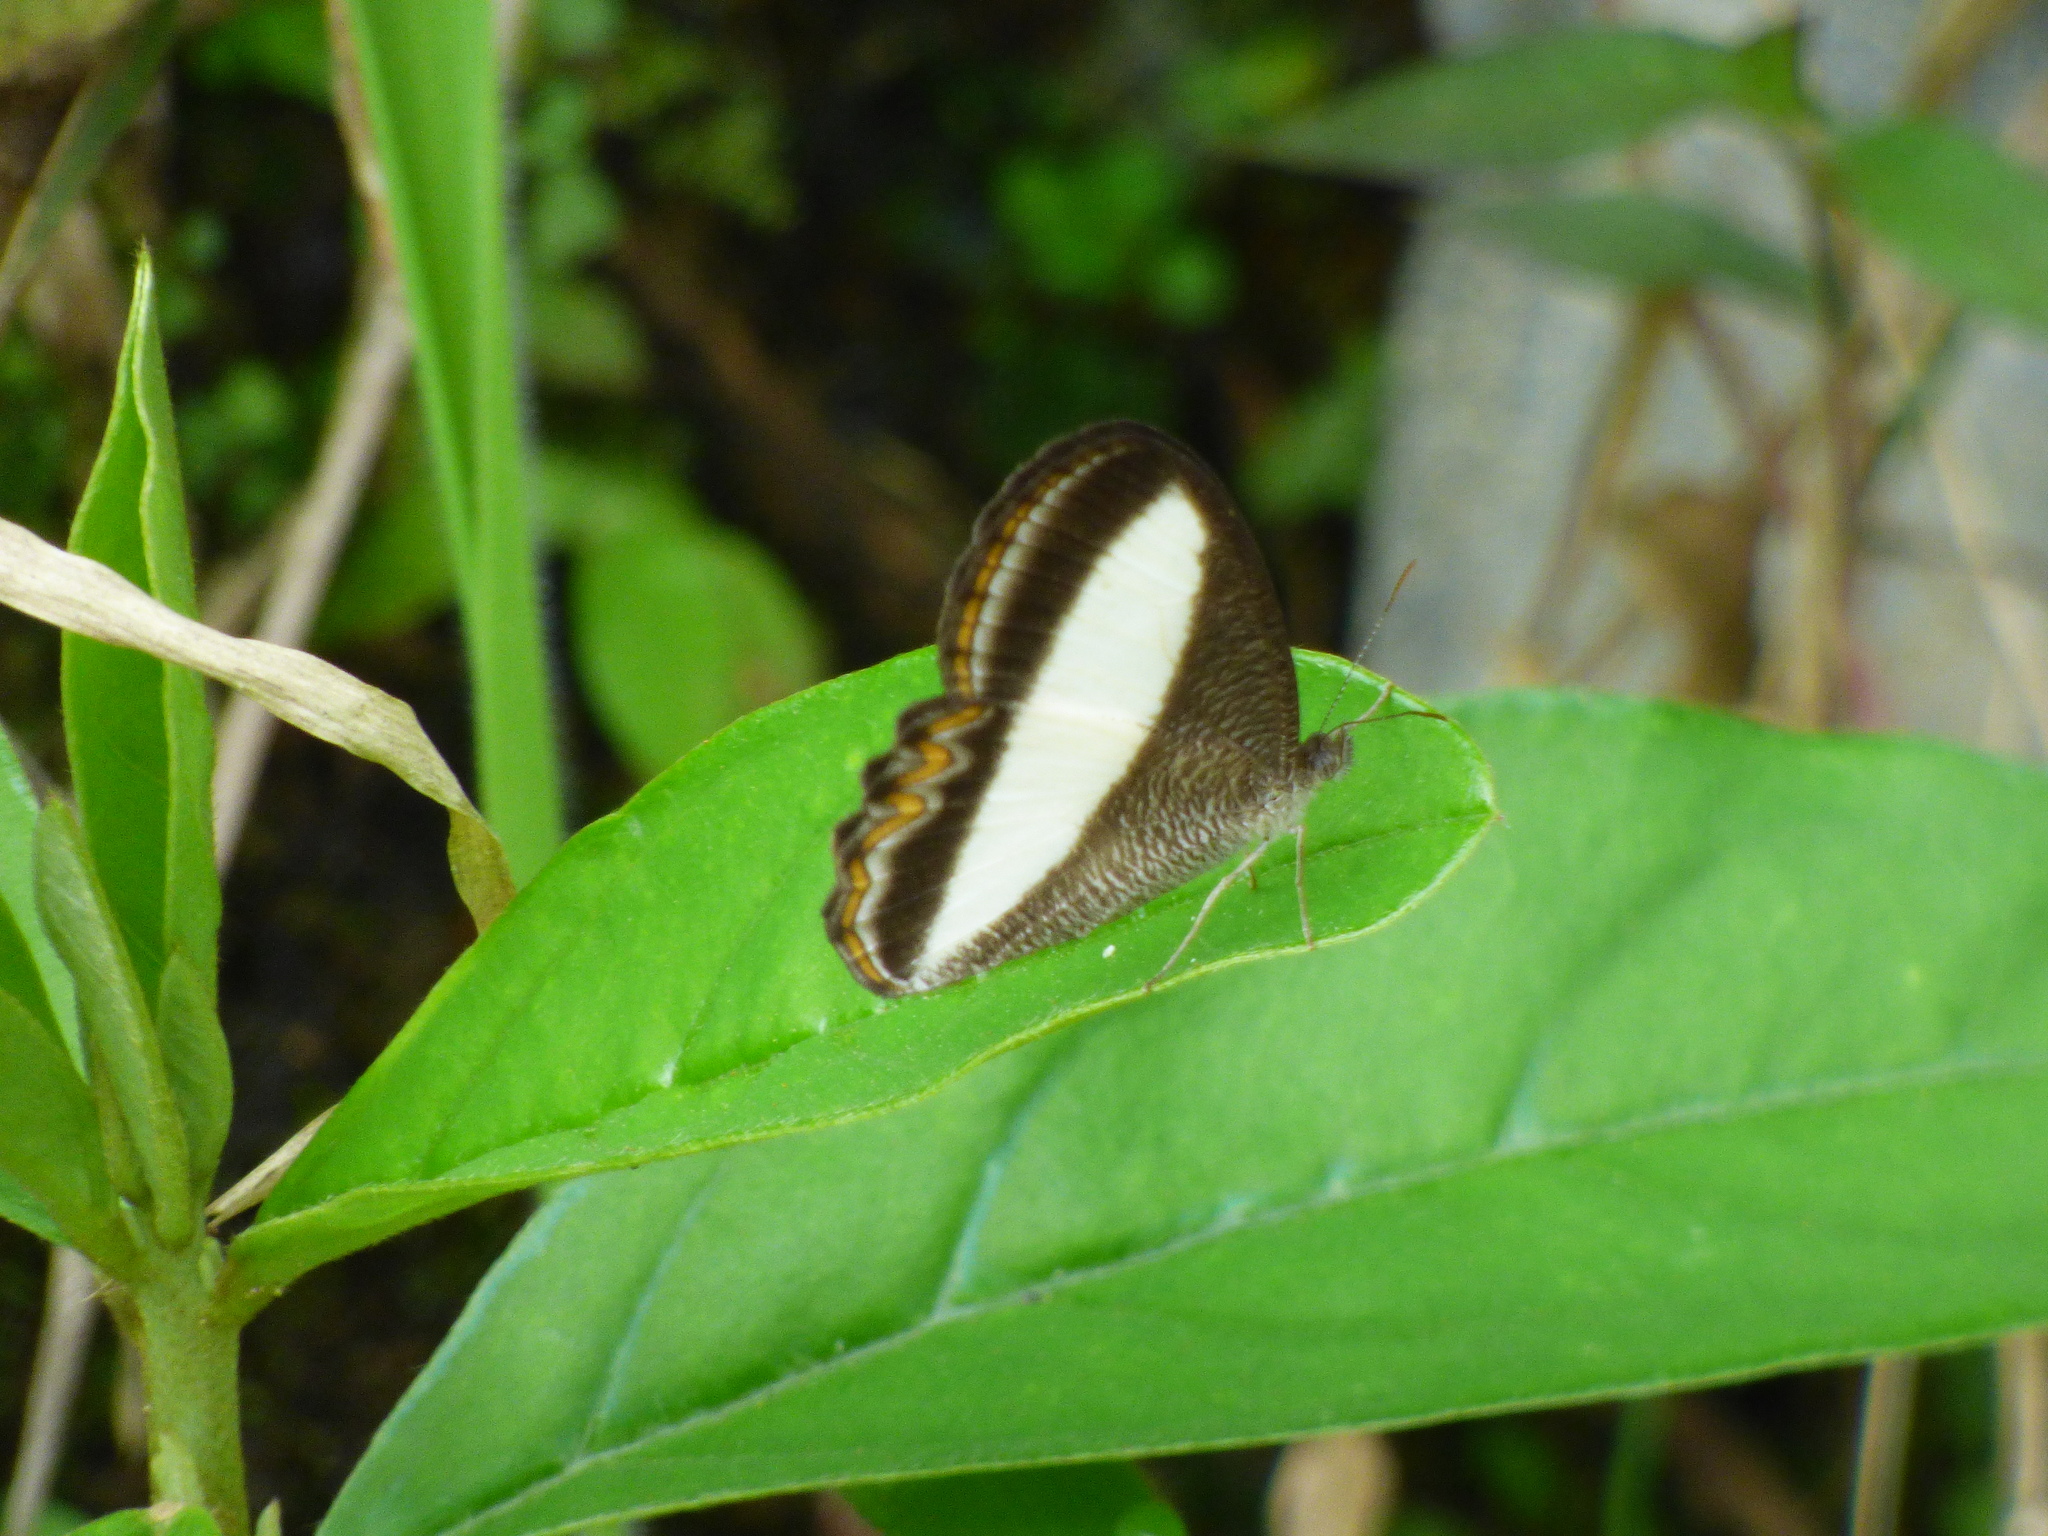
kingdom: Animalia
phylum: Arthropoda
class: Insecta
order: Lepidoptera
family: Nymphalidae
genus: Oressinoma
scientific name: Oressinoma typhla
